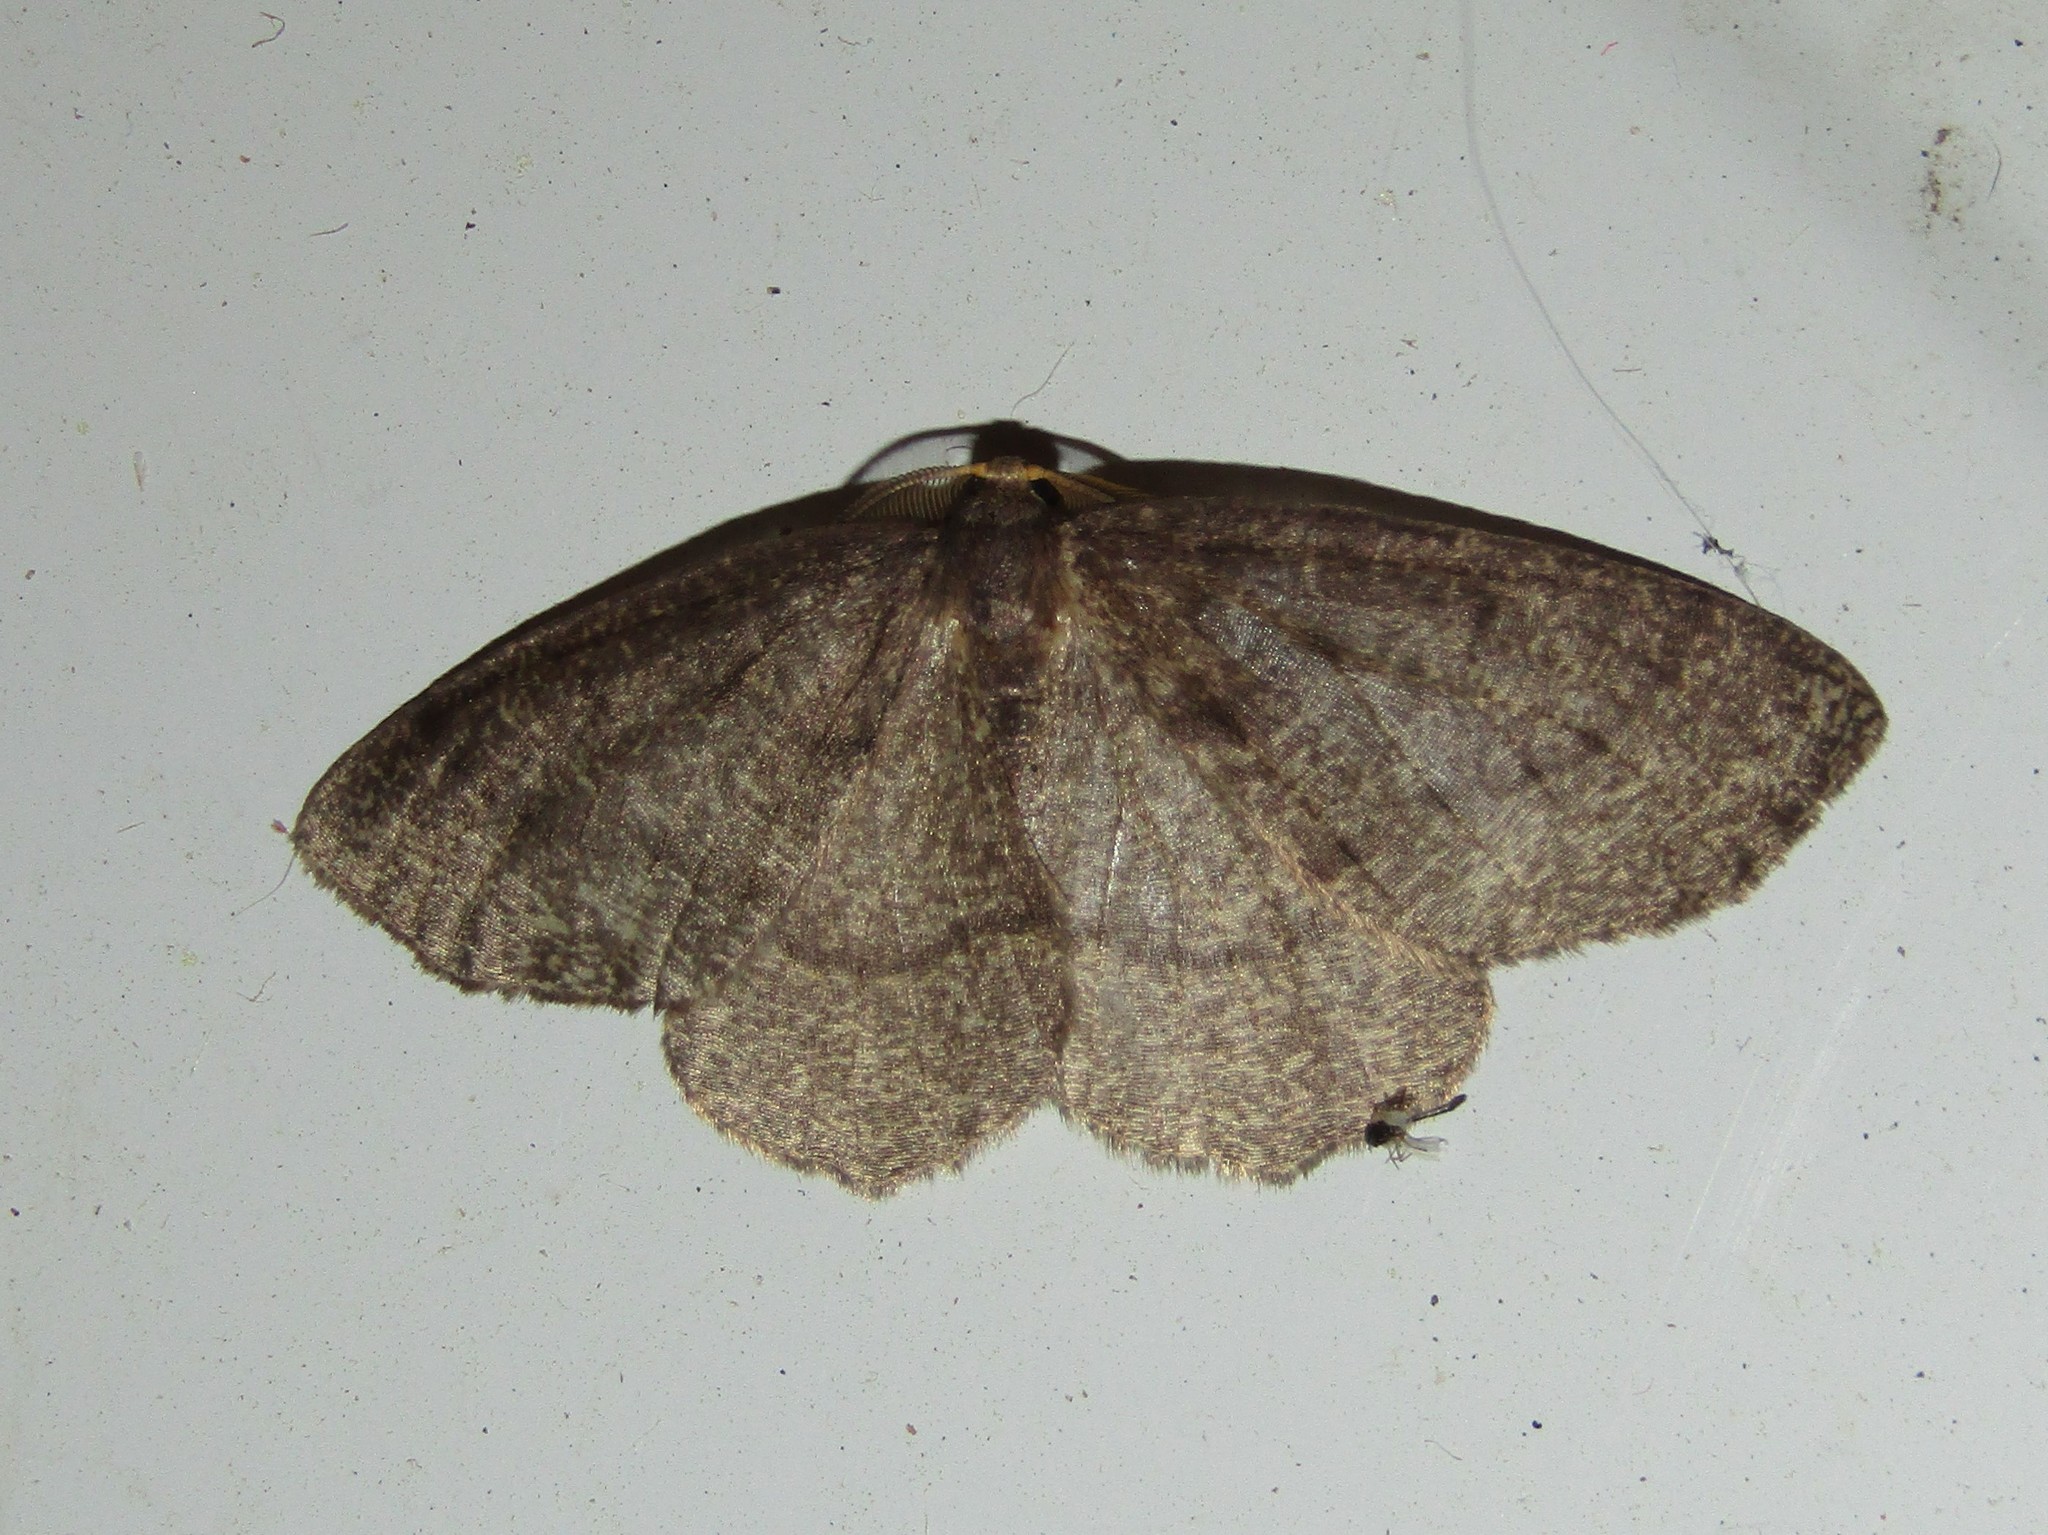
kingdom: Animalia
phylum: Arthropoda
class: Insecta
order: Lepidoptera
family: Geometridae
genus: Lambdina
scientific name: Lambdina fervidaria
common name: Curve-lined looper moth
